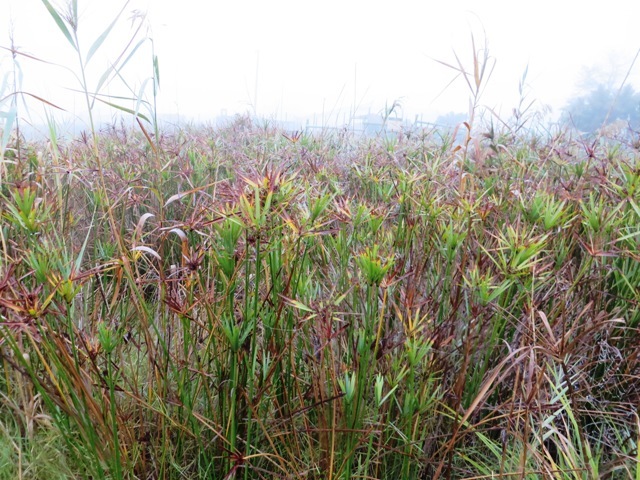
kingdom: Plantae
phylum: Tracheophyta
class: Liliopsida
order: Poales
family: Cyperaceae
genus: Cyperus
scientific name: Cyperus textilis
